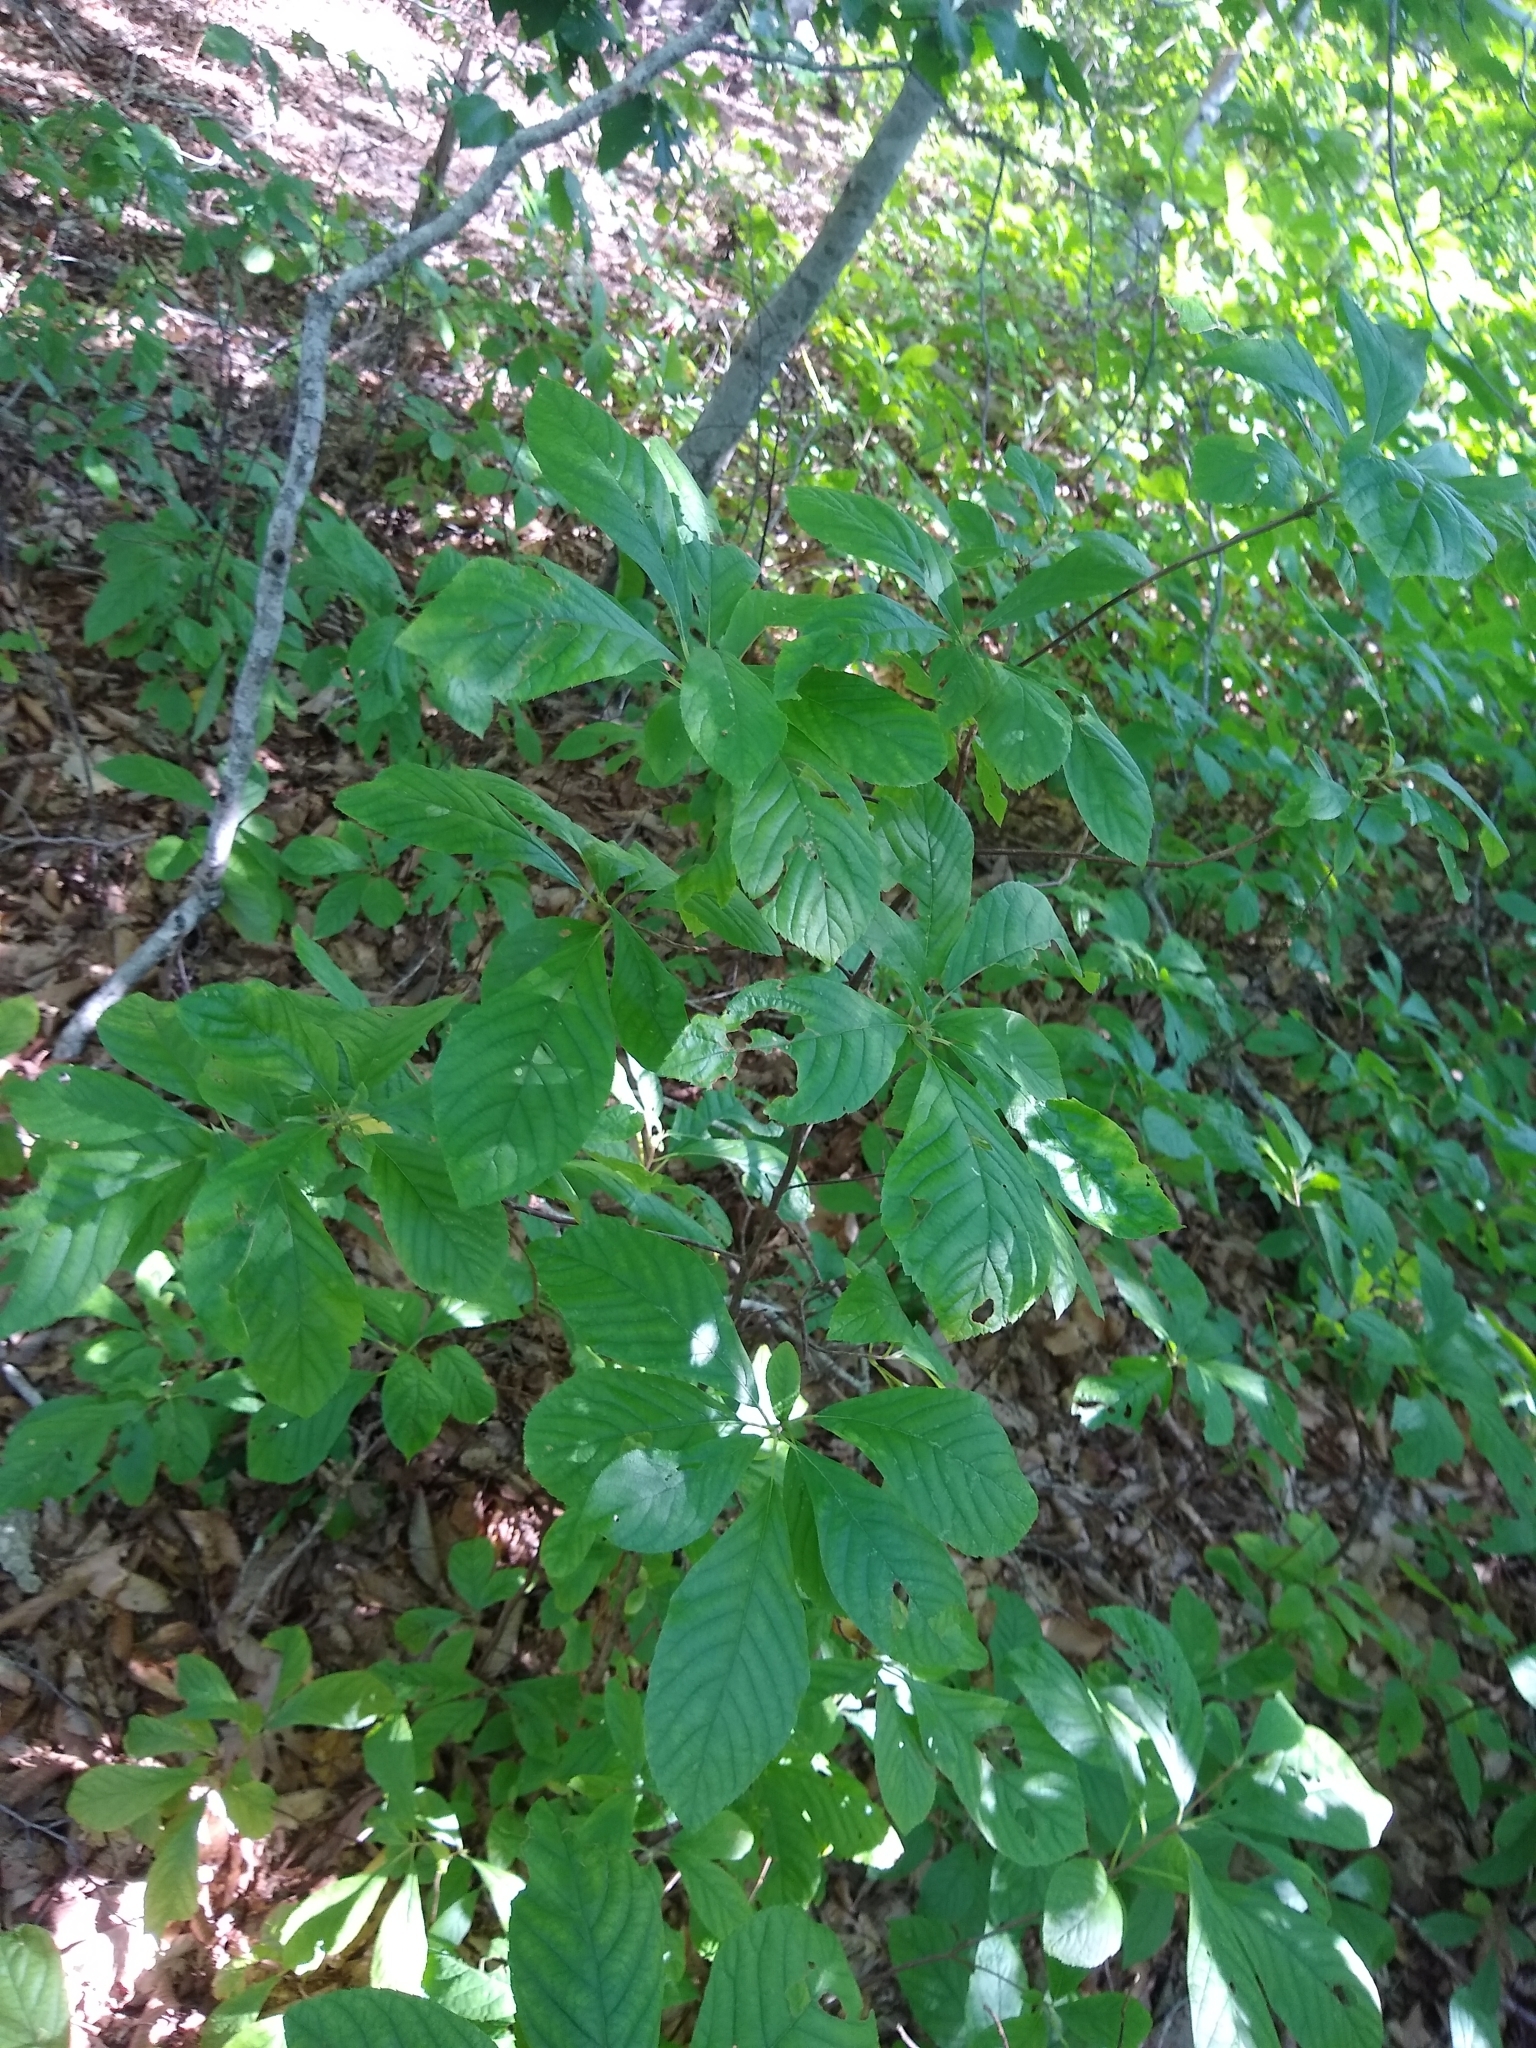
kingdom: Plantae
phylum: Tracheophyta
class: Magnoliopsida
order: Ericales
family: Clethraceae
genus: Clethra
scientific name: Clethra alnifolia
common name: Sweet pepperbush
